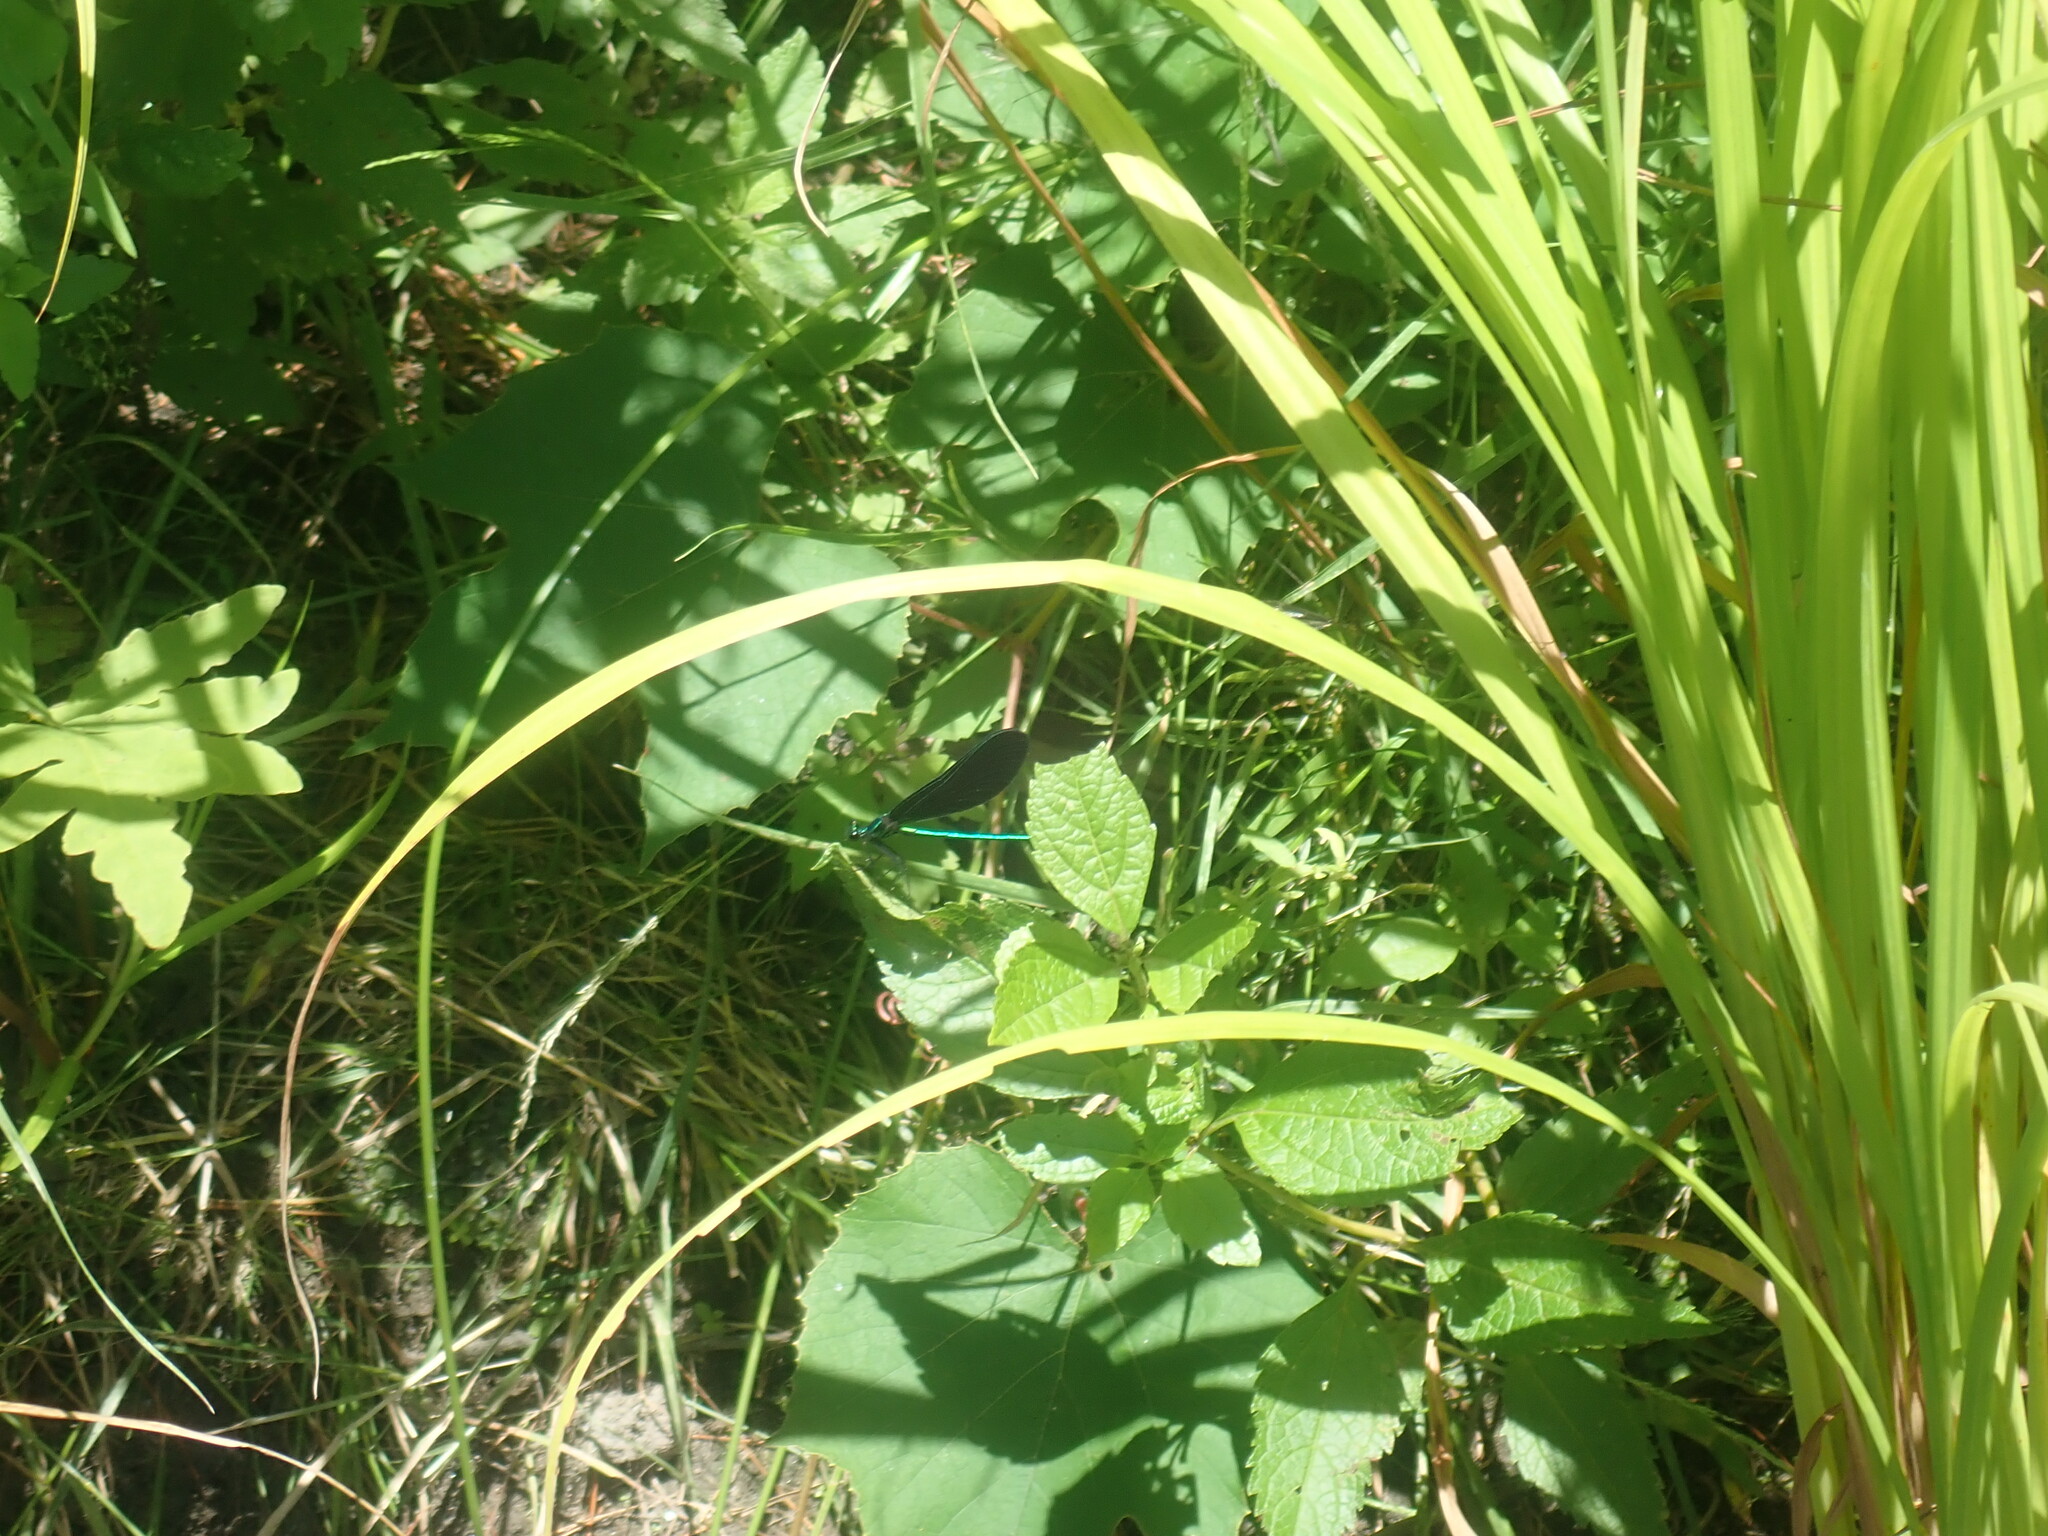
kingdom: Animalia
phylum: Arthropoda
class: Insecta
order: Odonata
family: Calopterygidae
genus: Calopteryx
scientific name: Calopteryx maculata
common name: Ebony jewelwing
